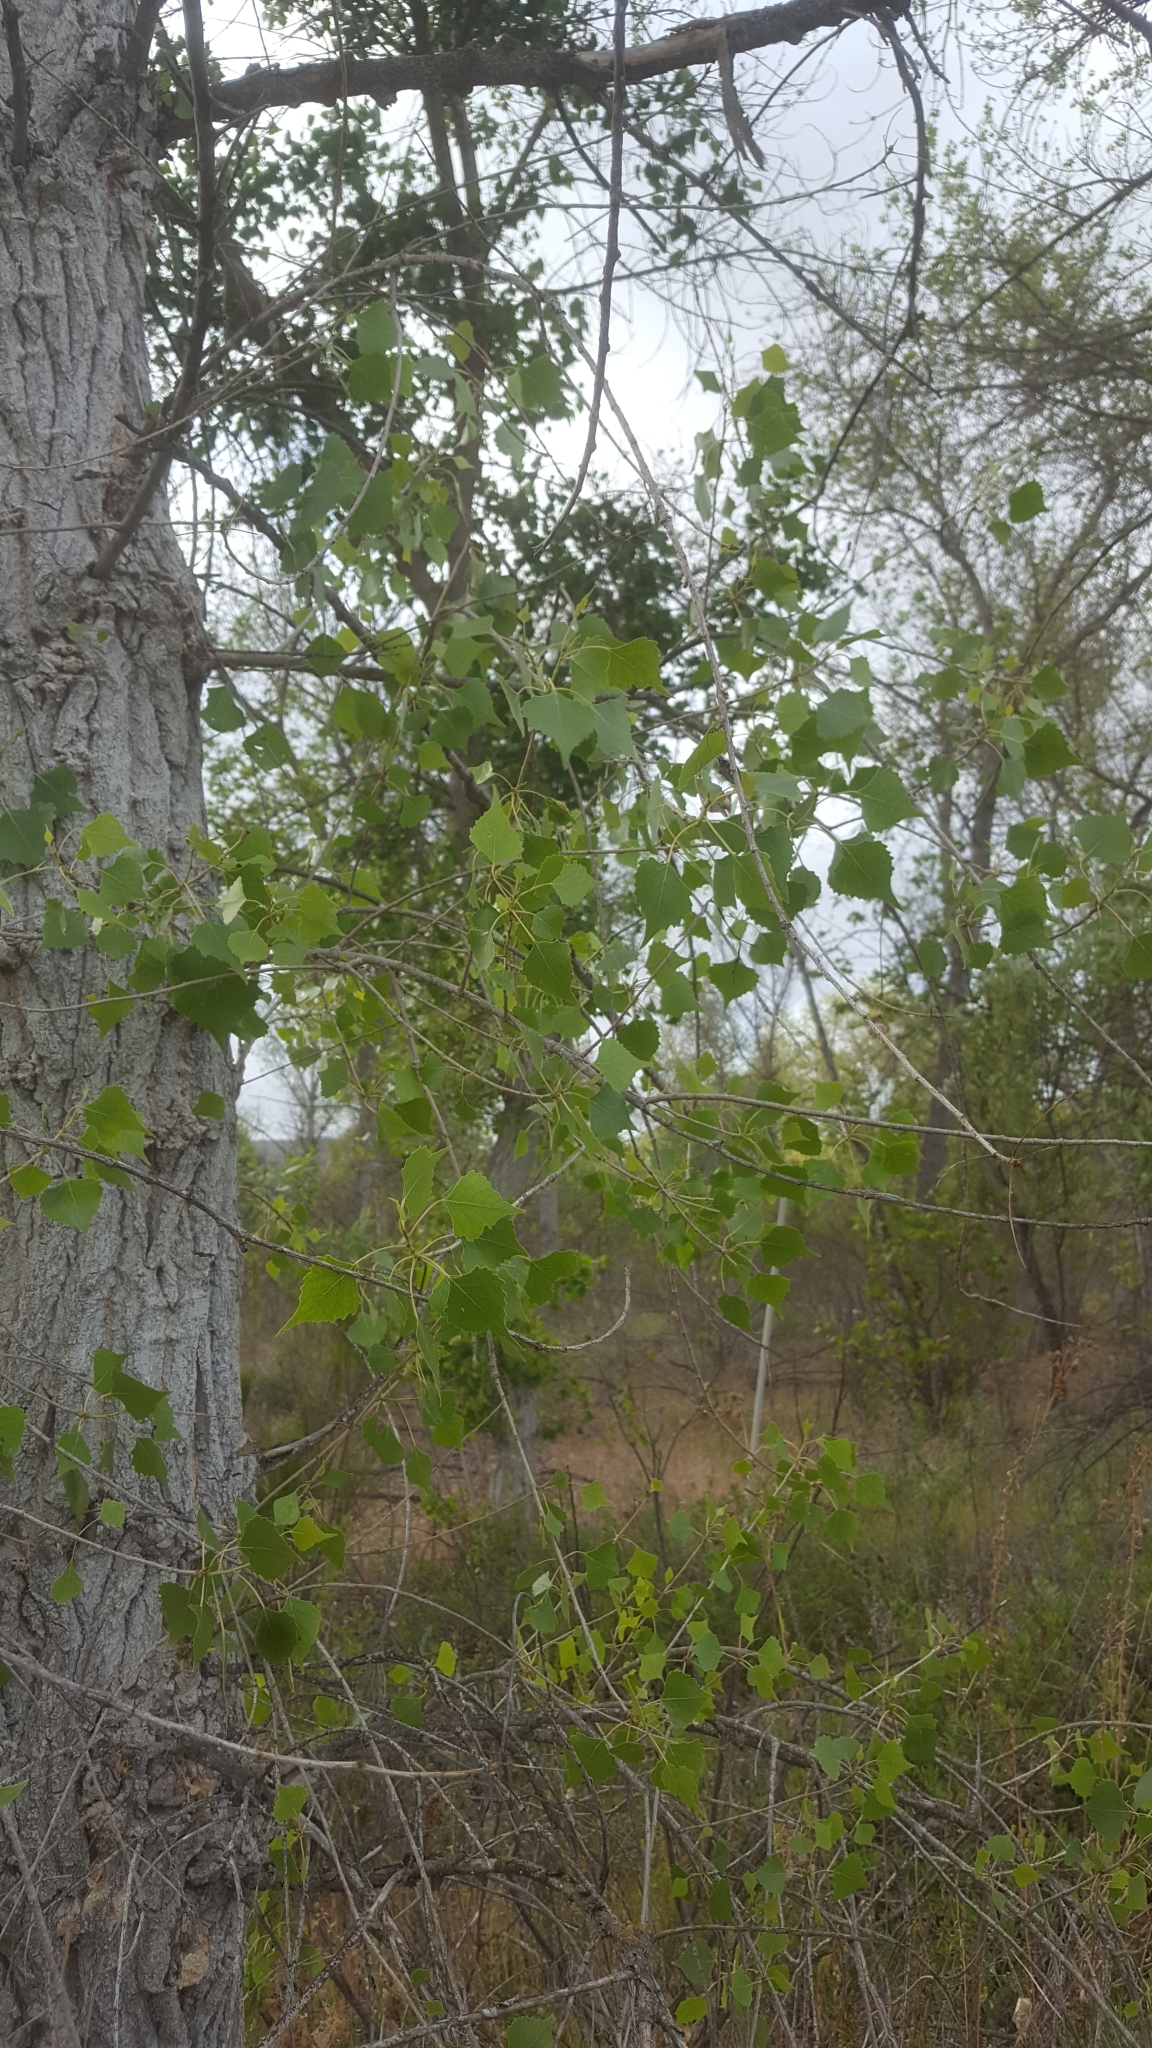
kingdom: Plantae
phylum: Tracheophyta
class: Magnoliopsida
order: Malpighiales
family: Salicaceae
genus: Populus
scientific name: Populus fremontii
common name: Fremont's cottonwood
